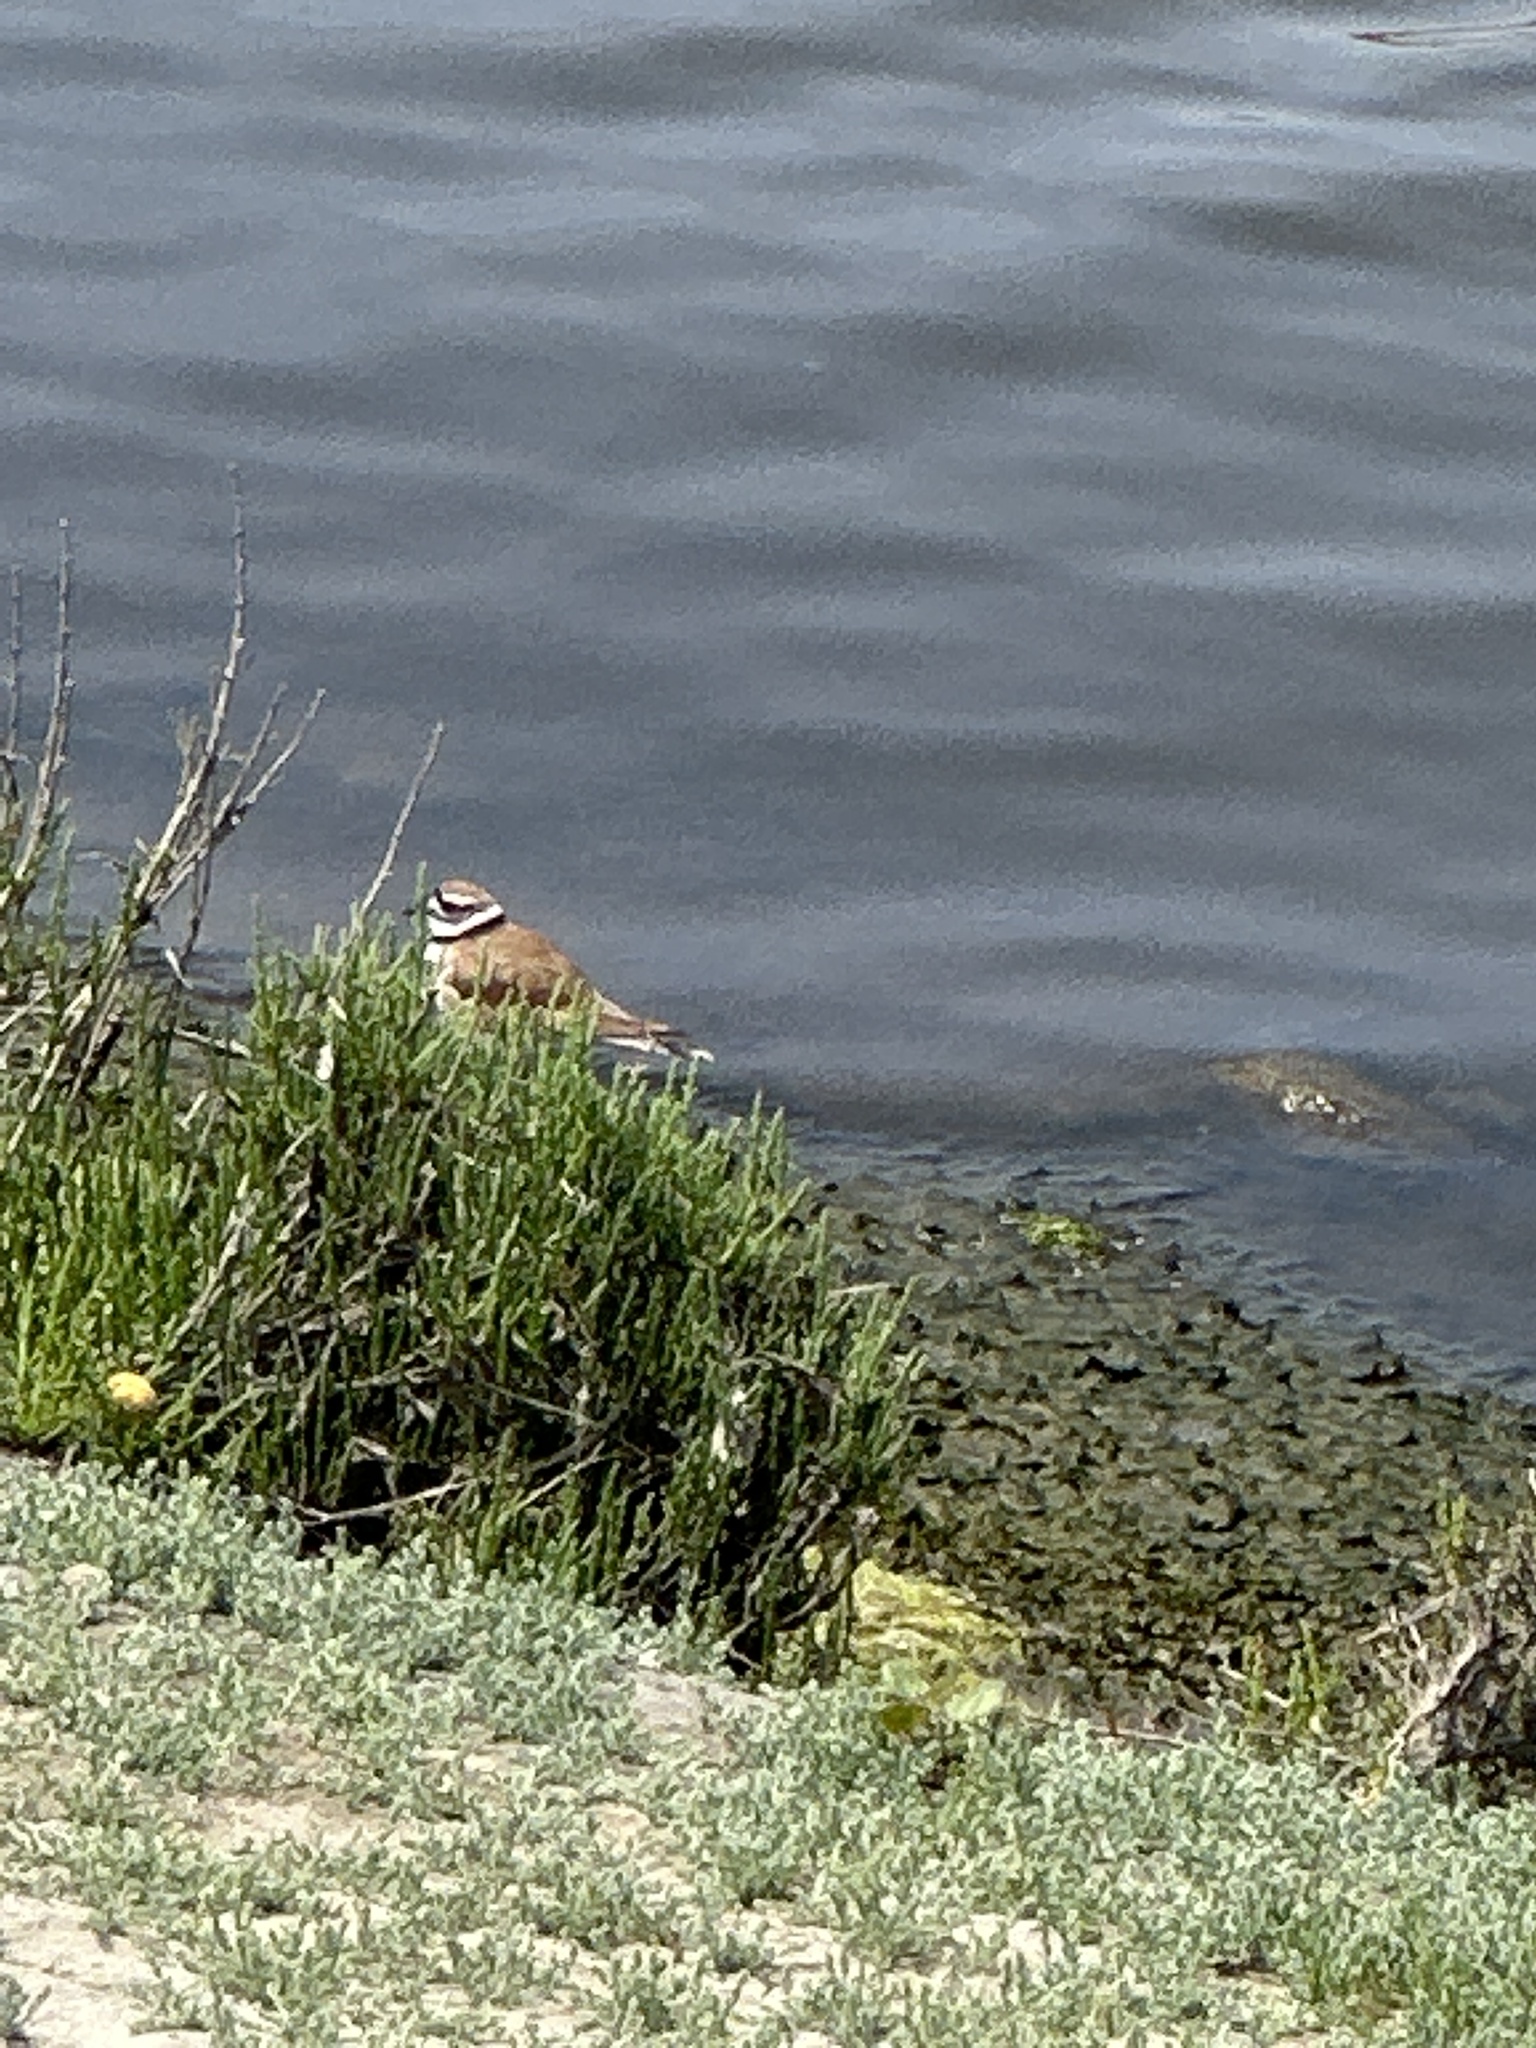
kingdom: Animalia
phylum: Chordata
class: Aves
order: Charadriiformes
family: Charadriidae
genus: Charadrius
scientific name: Charadrius vociferus
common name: Killdeer
